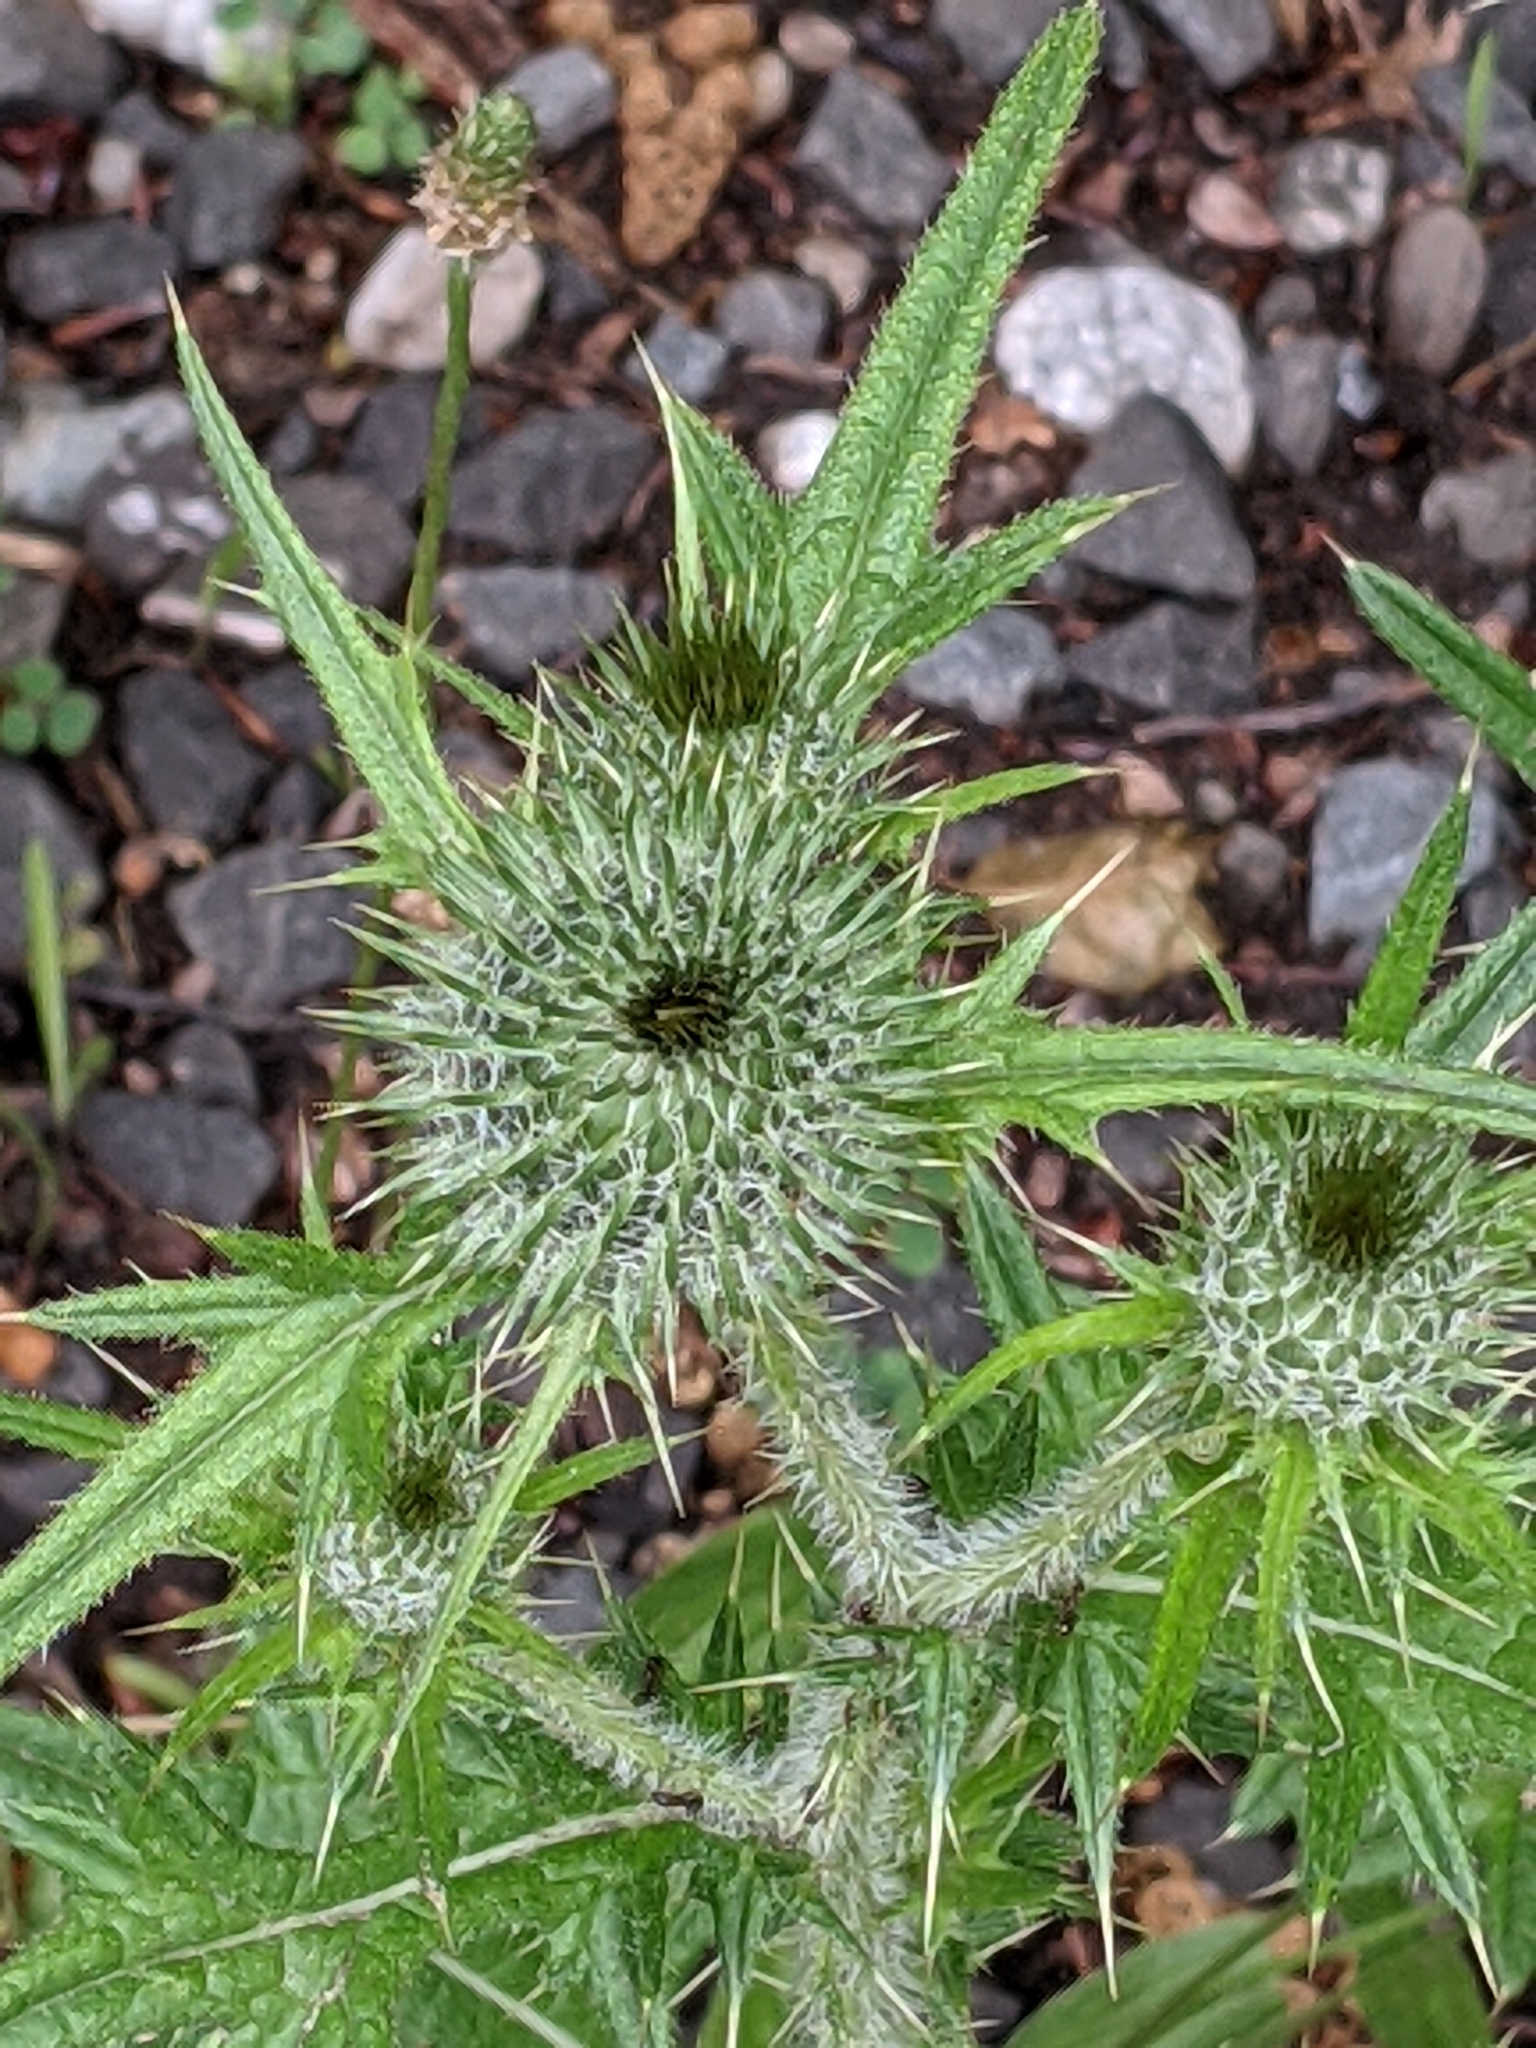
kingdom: Plantae
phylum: Tracheophyta
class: Magnoliopsida
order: Asterales
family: Asteraceae
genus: Cirsium
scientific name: Cirsium vulgare
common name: Bull thistle
